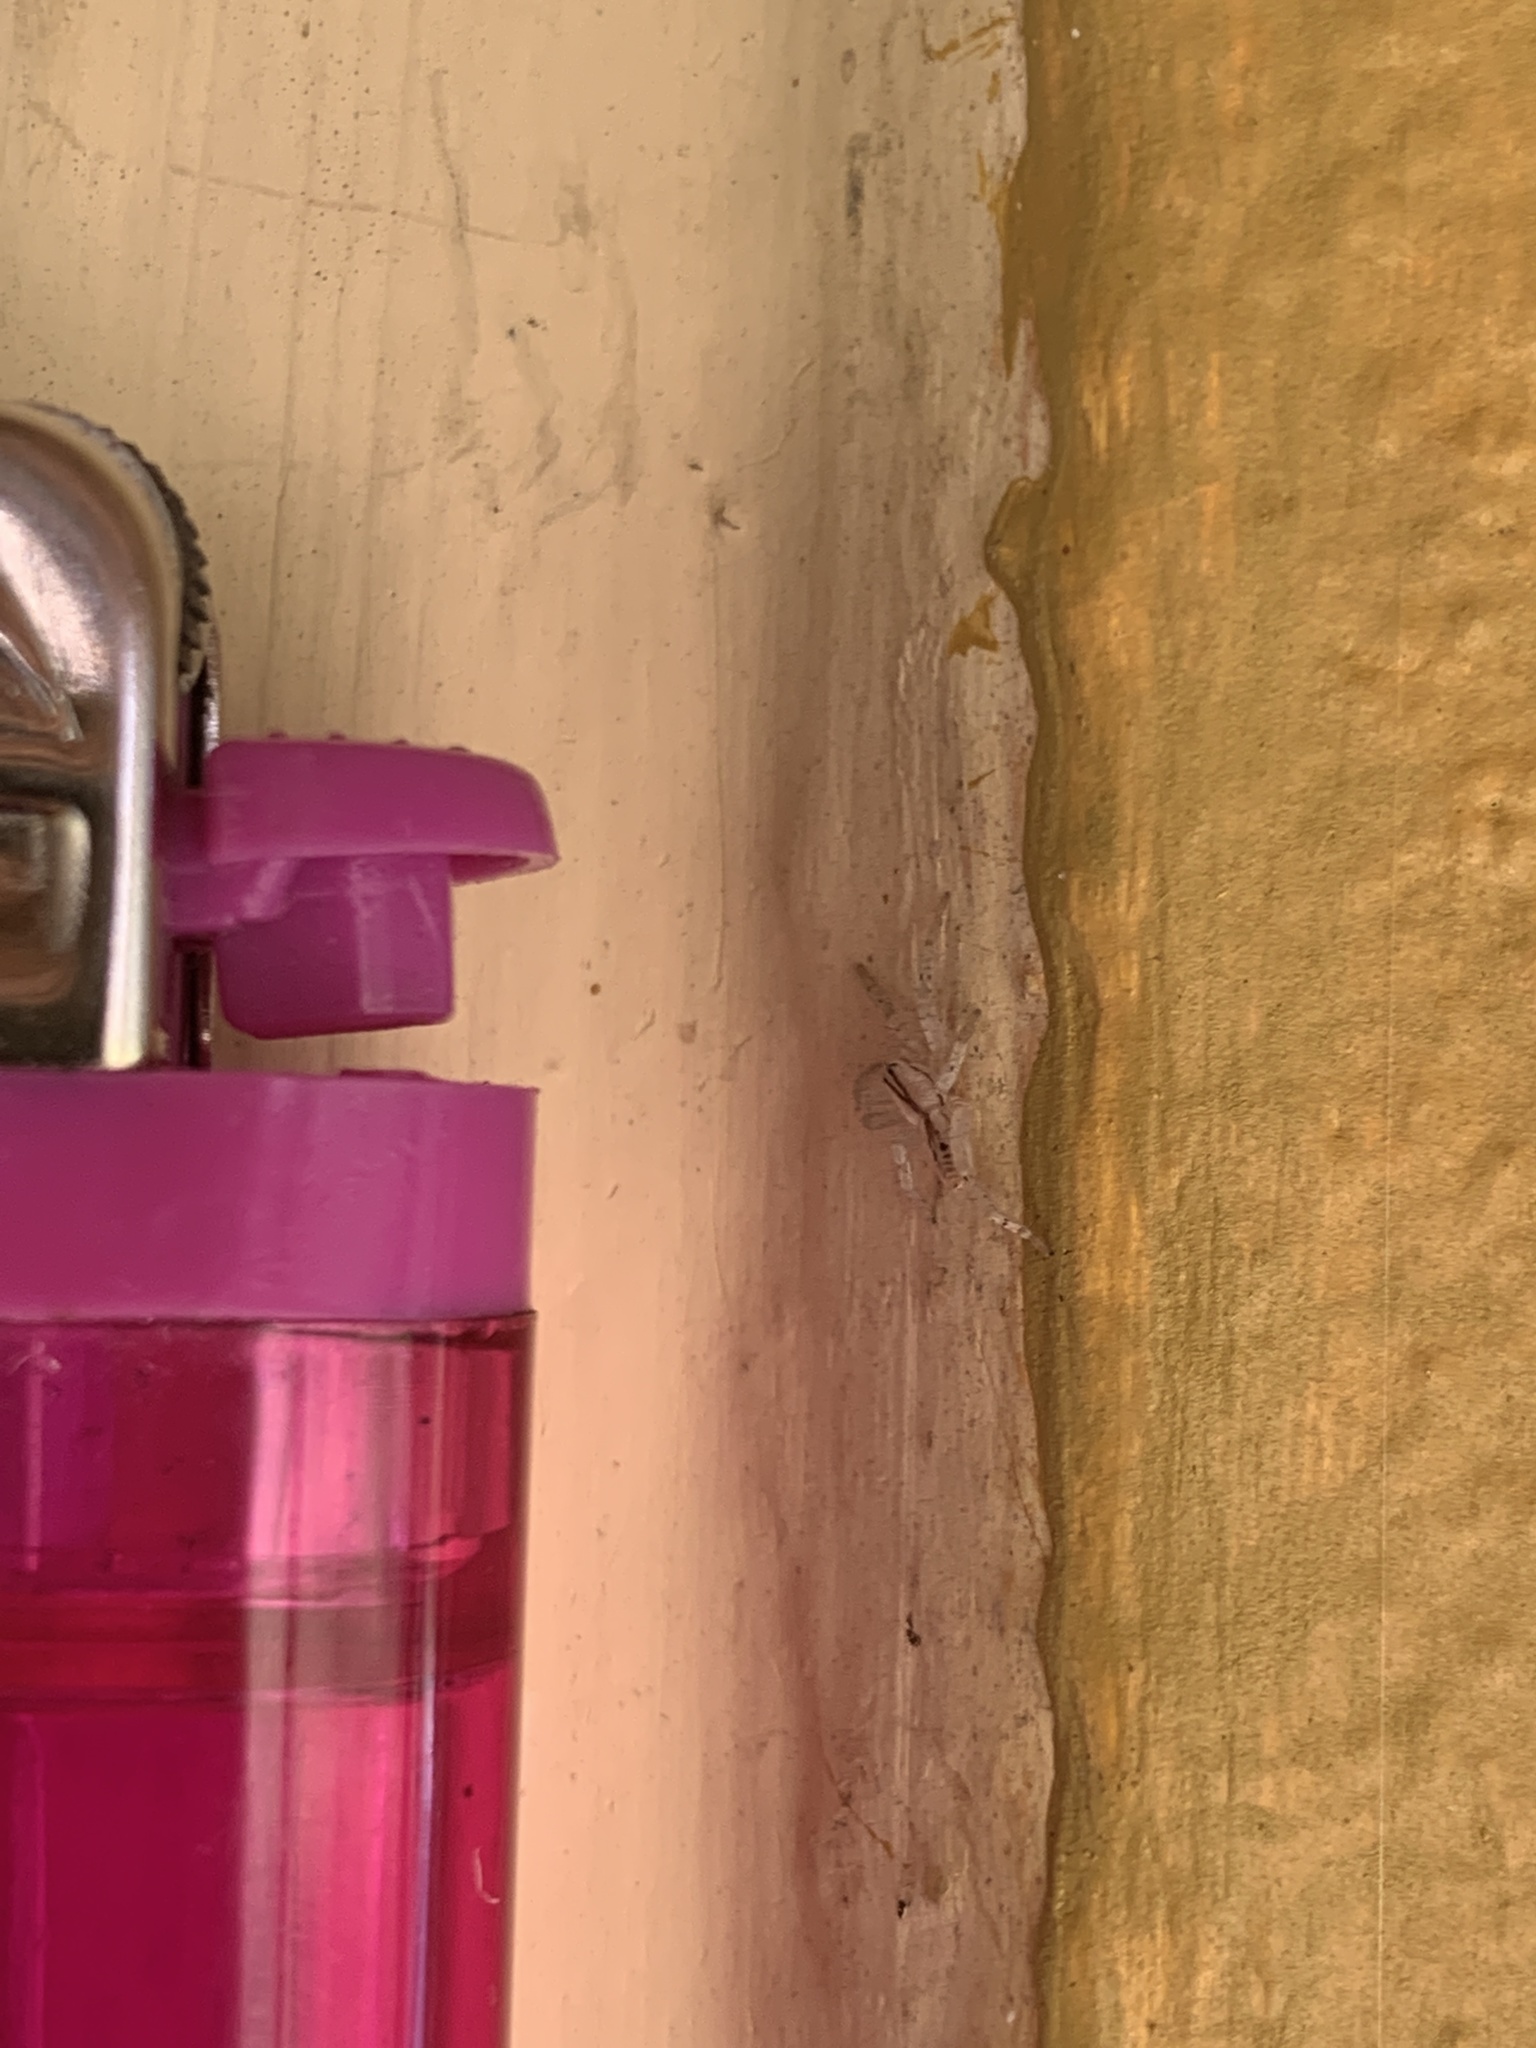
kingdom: Animalia
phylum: Arthropoda
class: Arachnida
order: Araneae
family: Anyphaenidae
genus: Arachosia
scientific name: Arachosia praesignis
